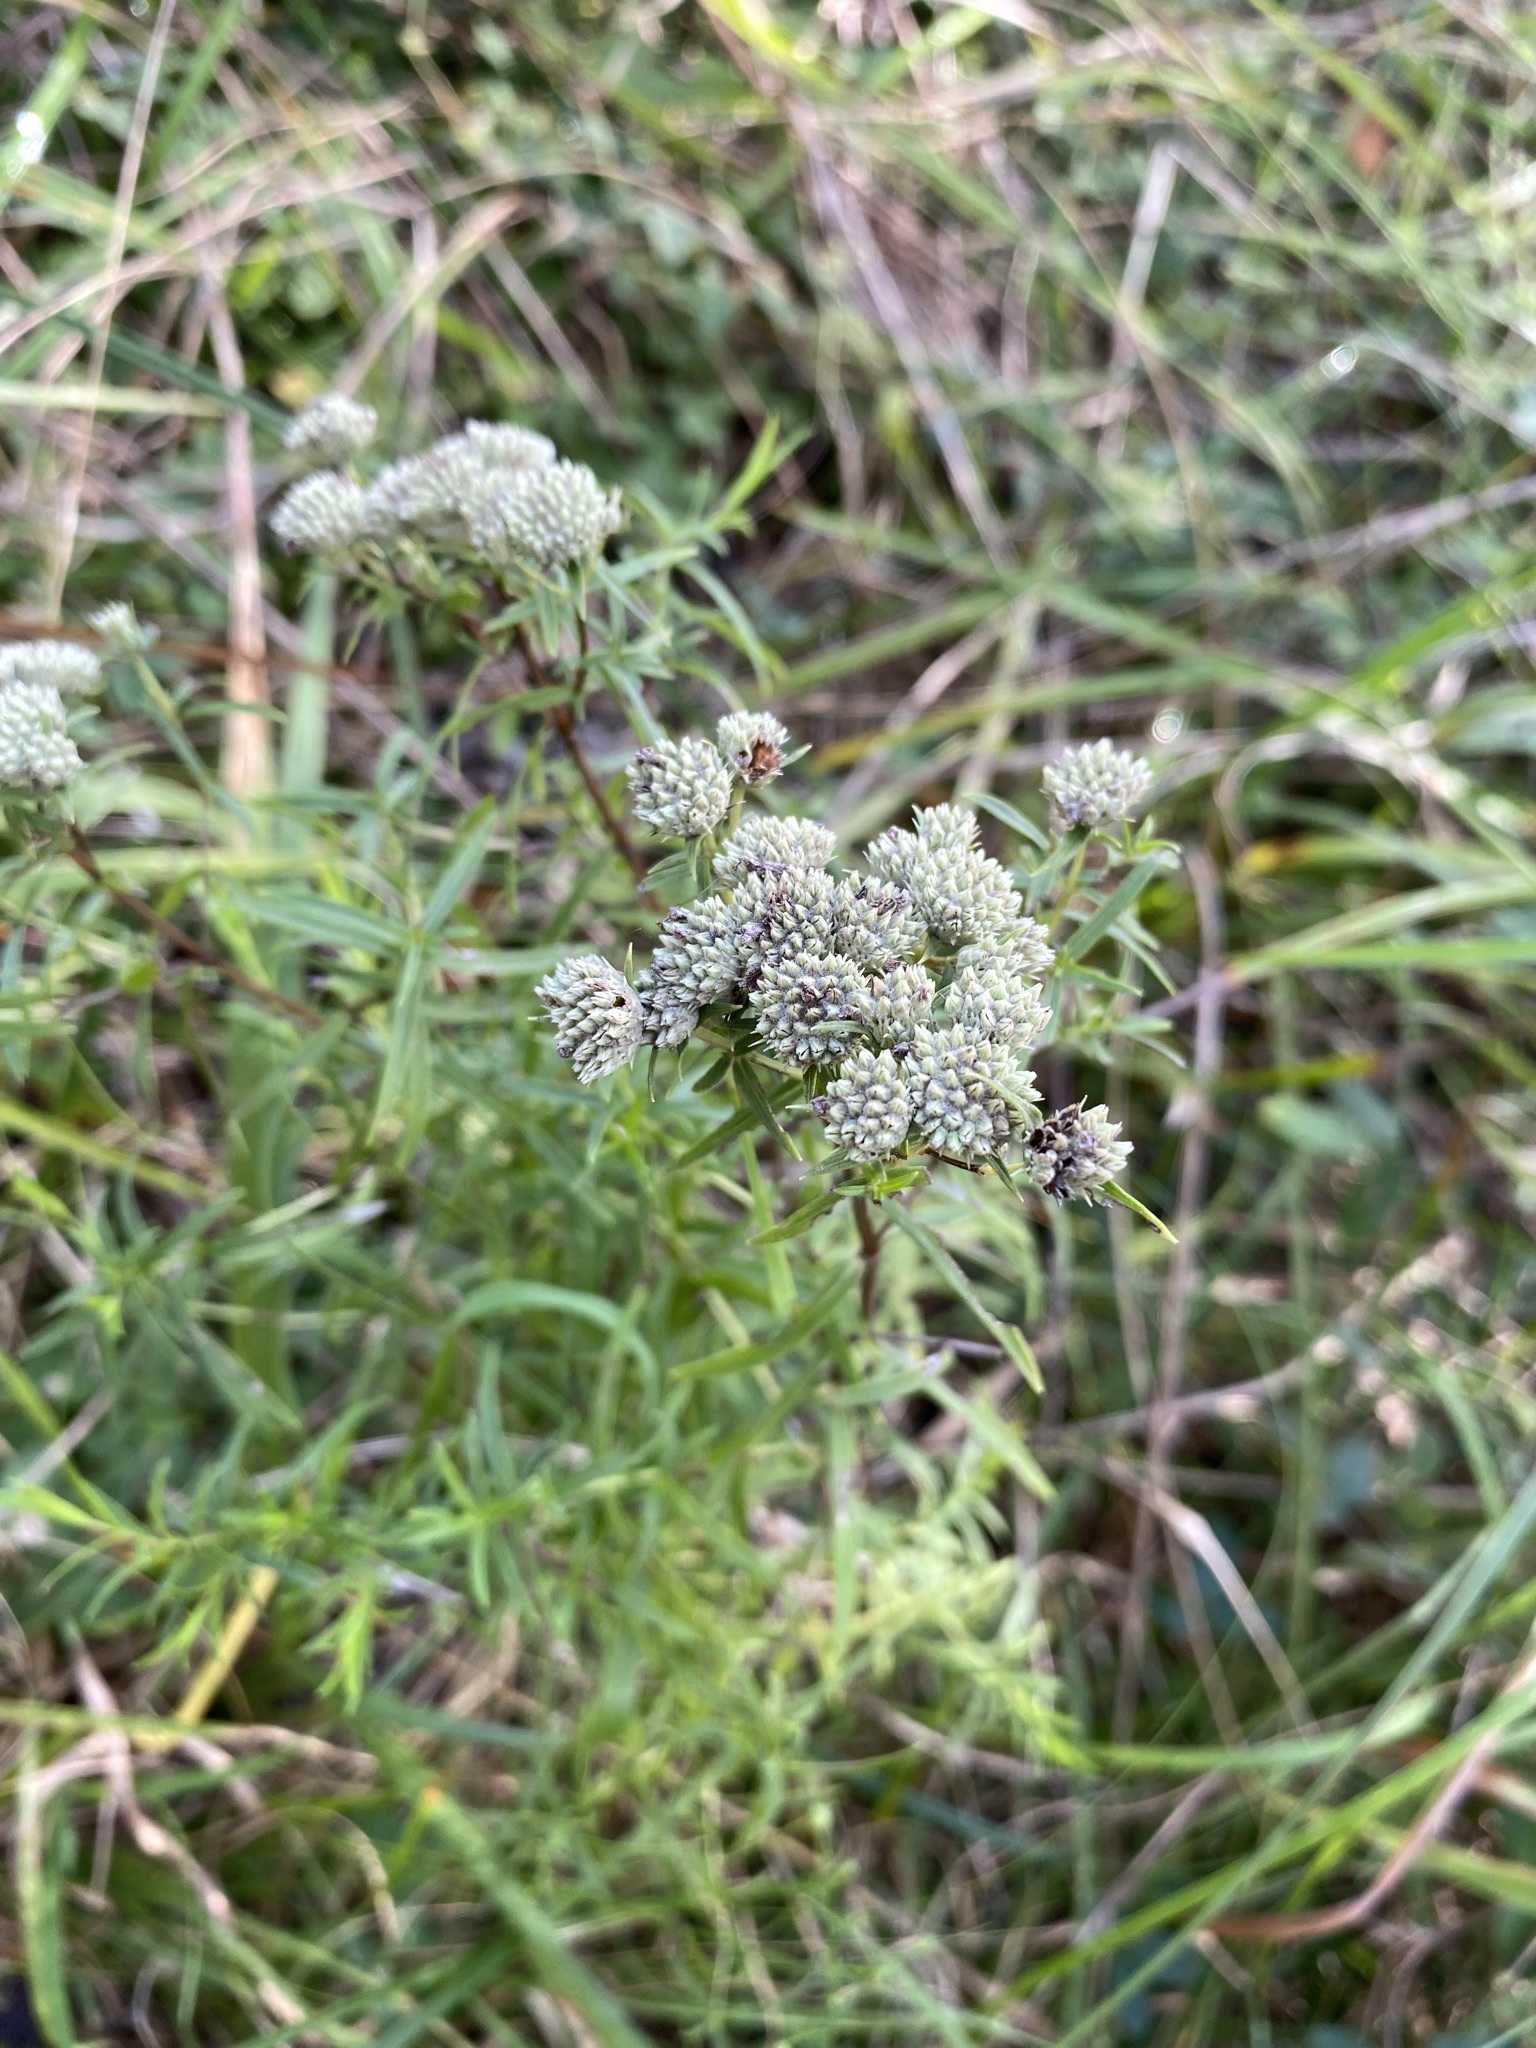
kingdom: Plantae
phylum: Tracheophyta
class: Magnoliopsida
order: Lamiales
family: Lamiaceae
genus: Pycnanthemum
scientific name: Pycnanthemum tenuifolium
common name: Narrow-leaf mountain-mint
